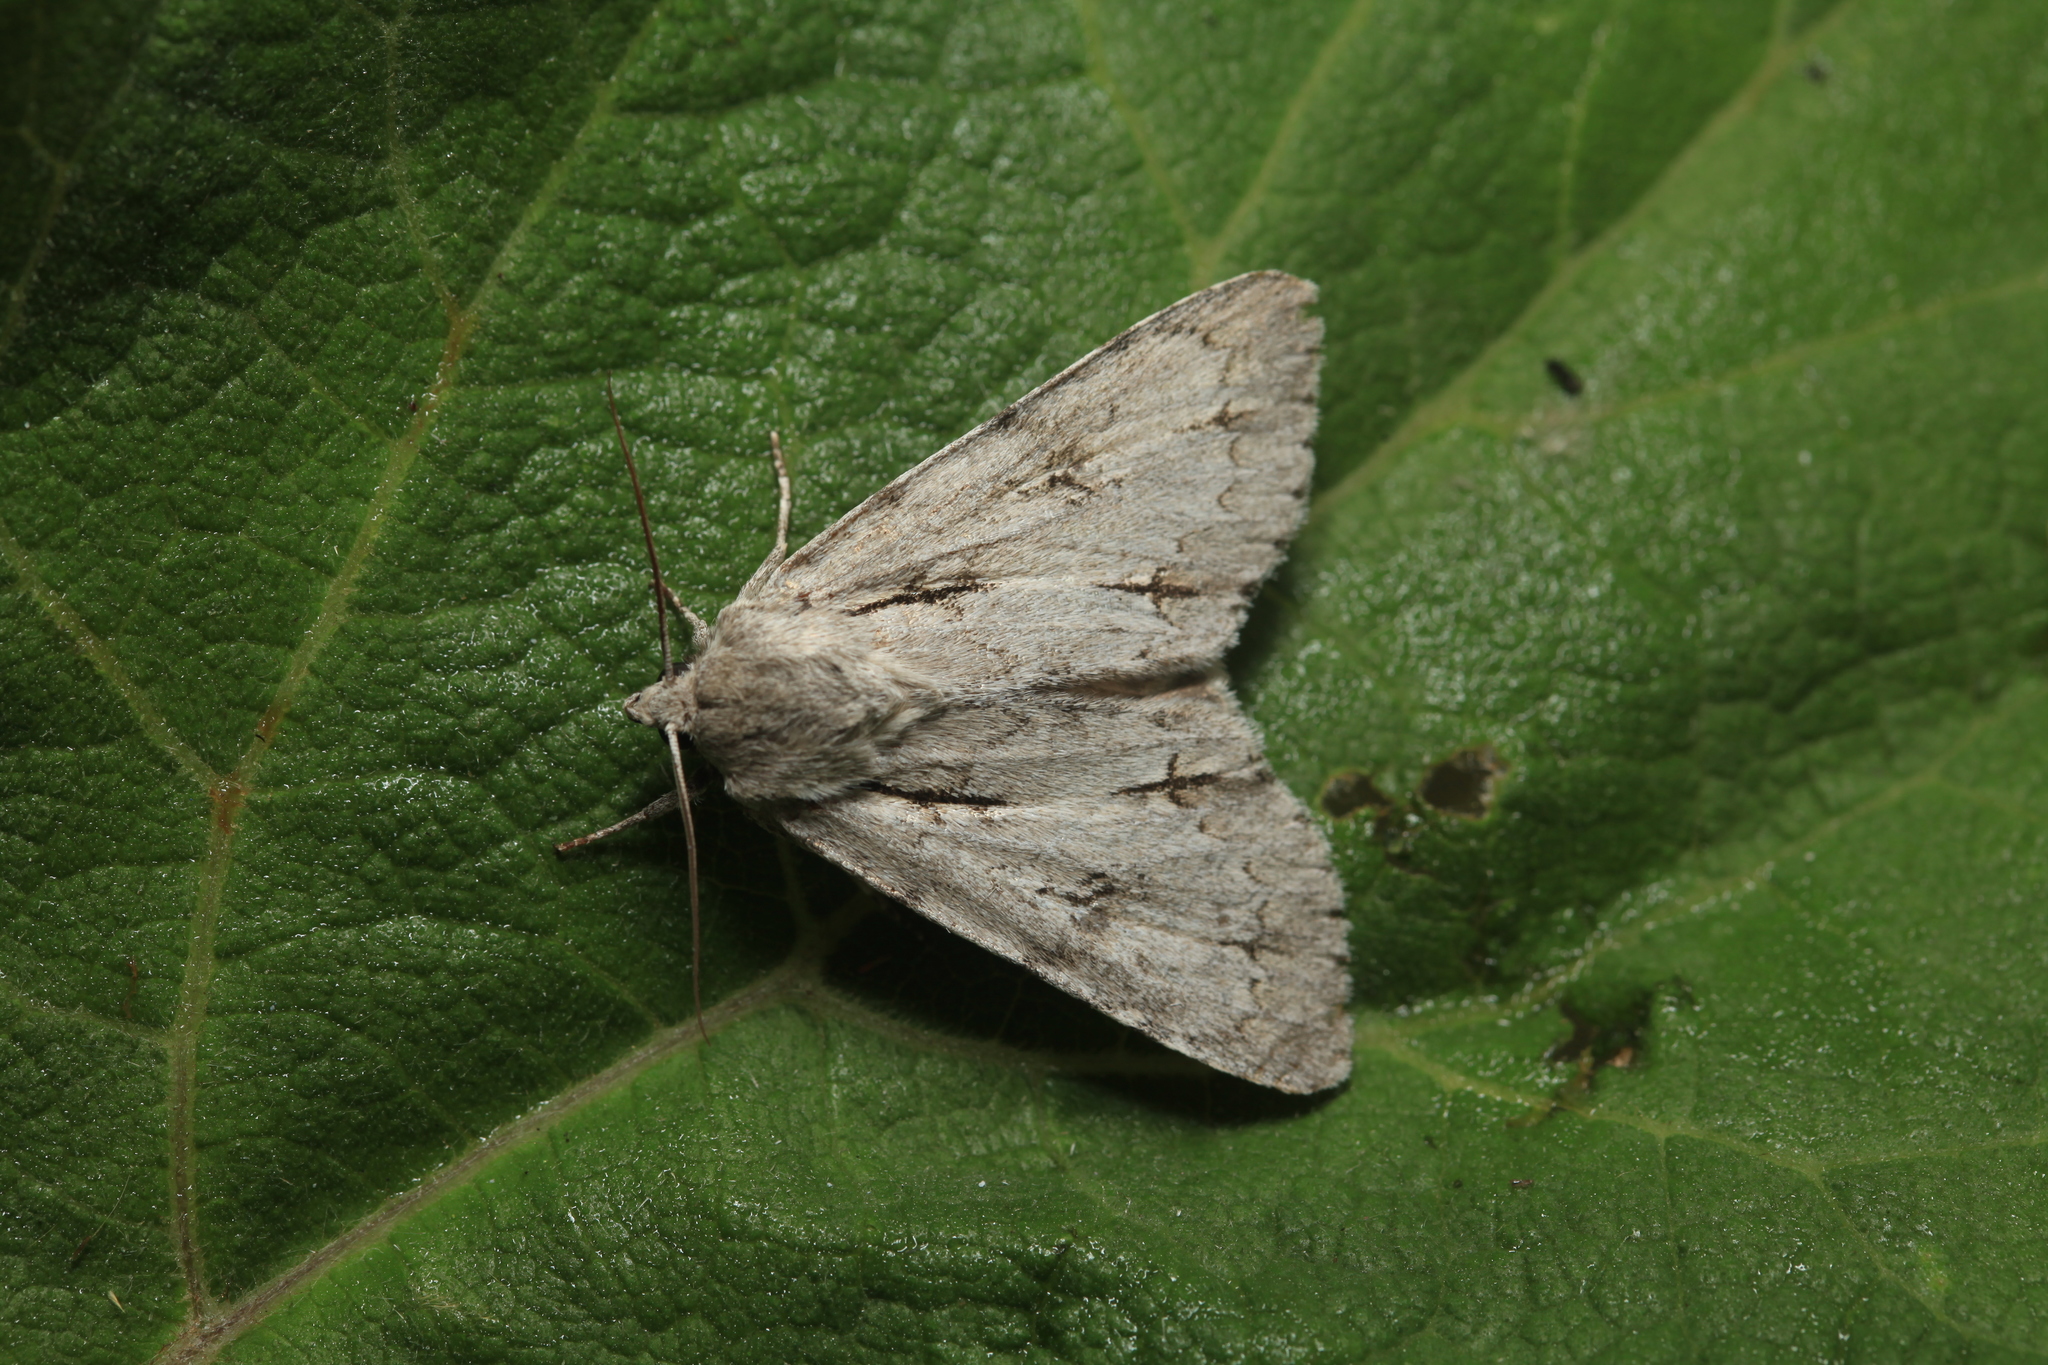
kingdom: Animalia
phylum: Arthropoda
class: Insecta
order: Lepidoptera
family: Noctuidae
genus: Acronicta
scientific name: Acronicta major
